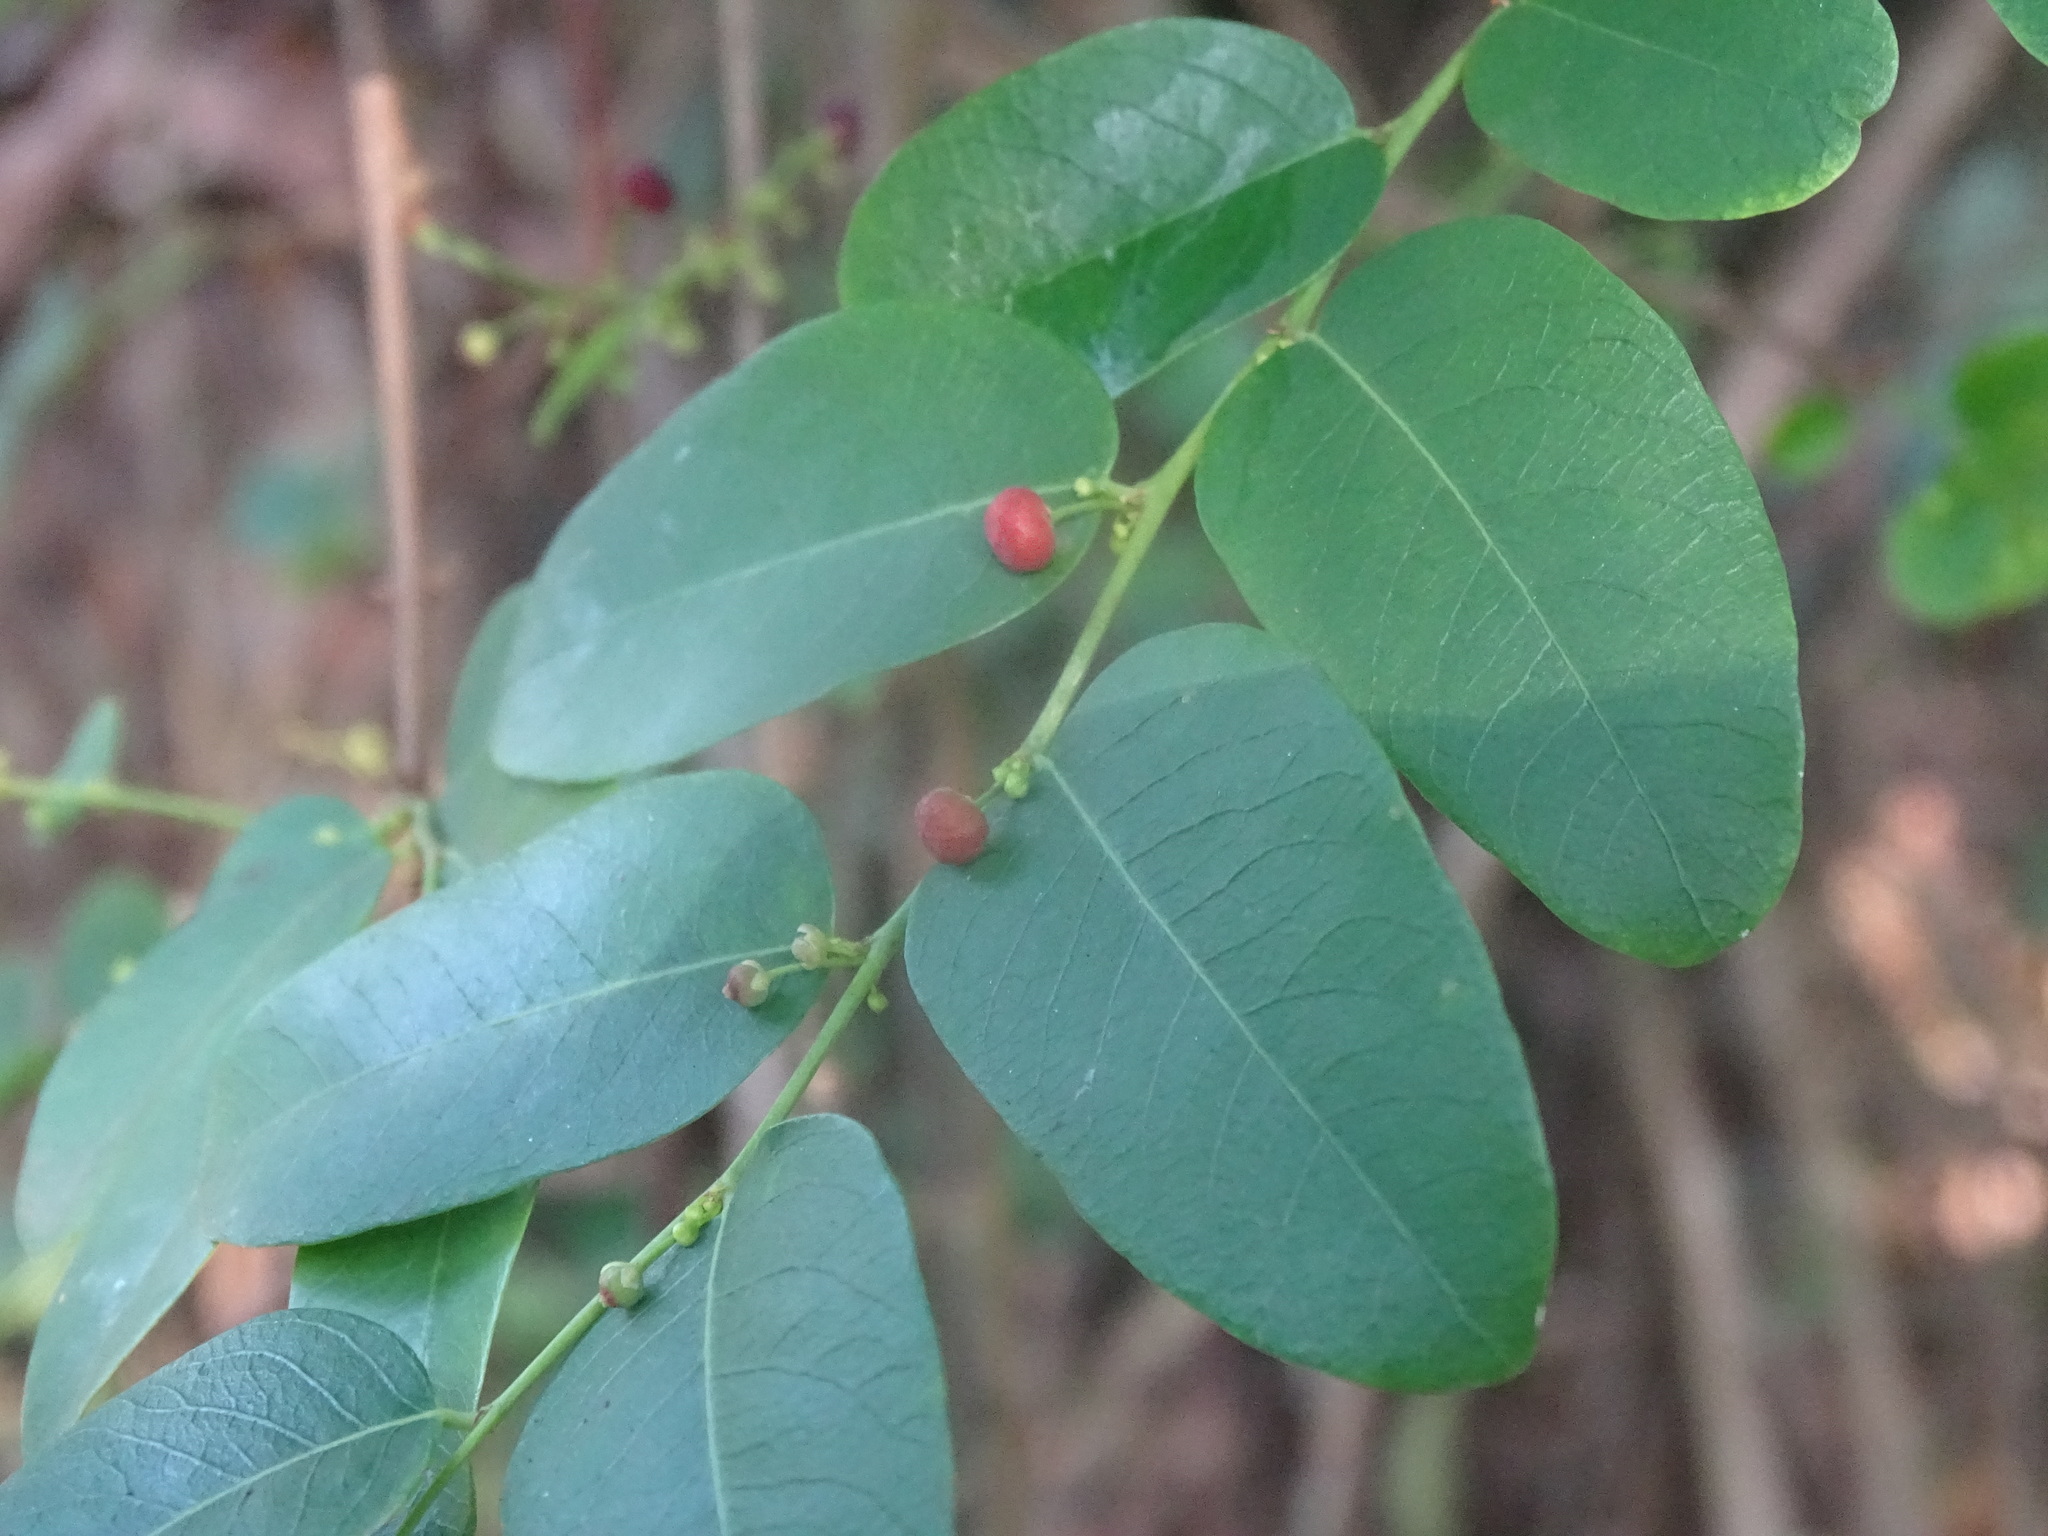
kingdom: Plantae
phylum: Tracheophyta
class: Magnoliopsida
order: Malpighiales
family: Phyllanthaceae
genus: Phyllanthus
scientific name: Phyllanthus reticulatus
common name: Potato bush
